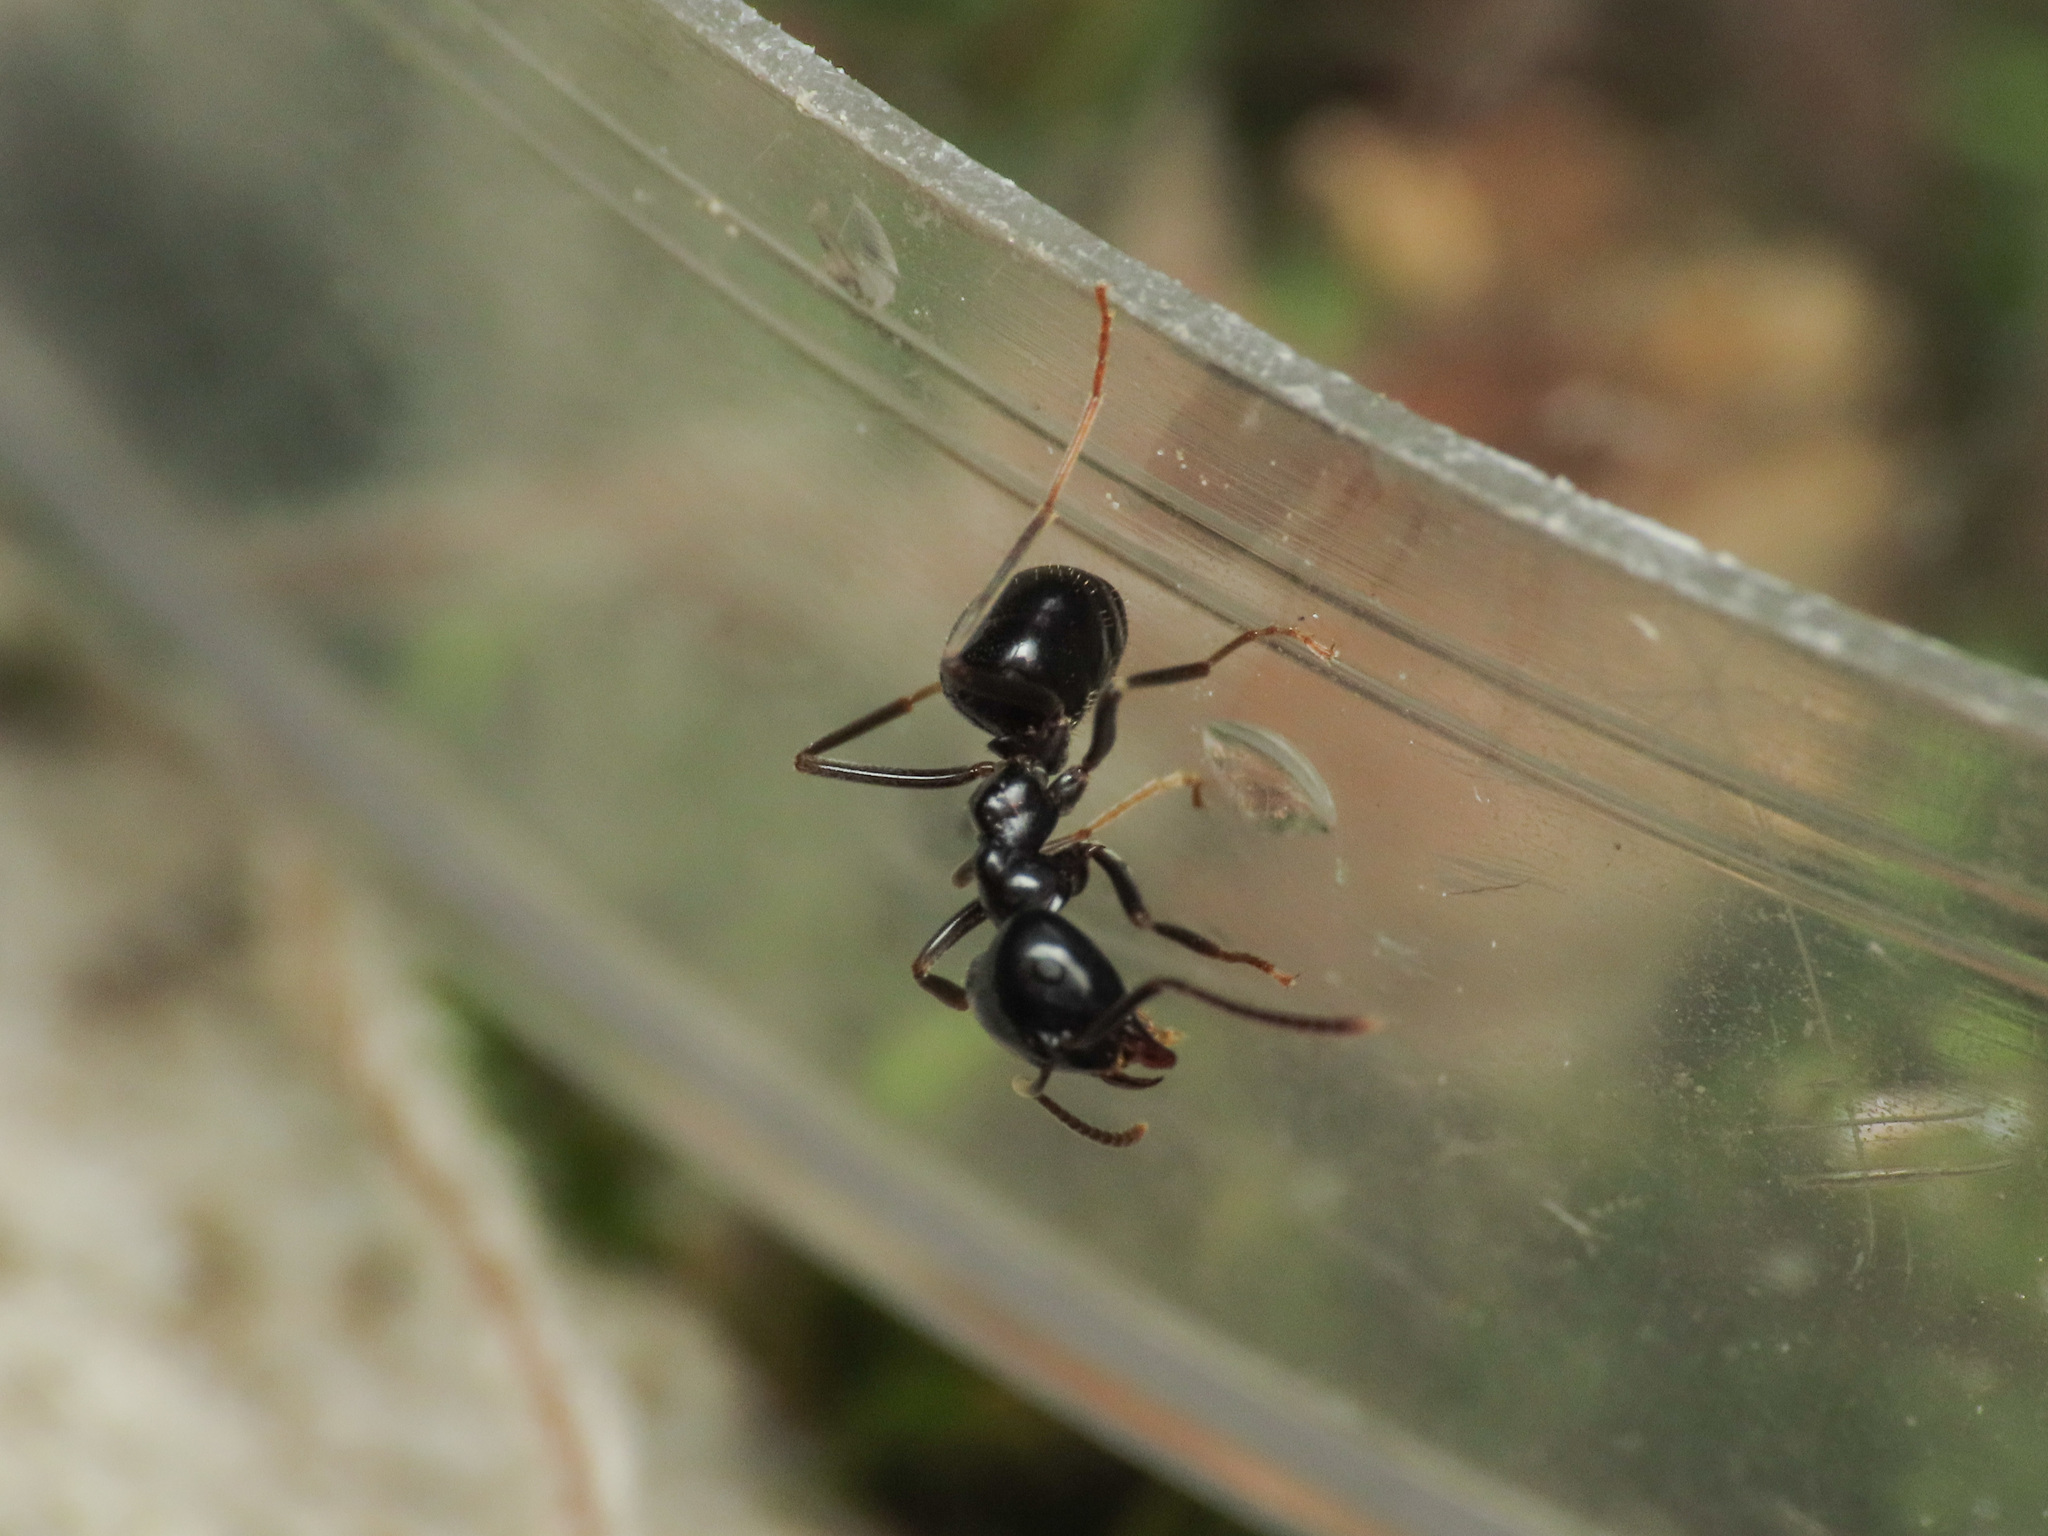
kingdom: Animalia
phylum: Arthropoda
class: Insecta
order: Hymenoptera
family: Formicidae
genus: Lasius
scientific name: Lasius fuliginosus
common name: Jet ant
